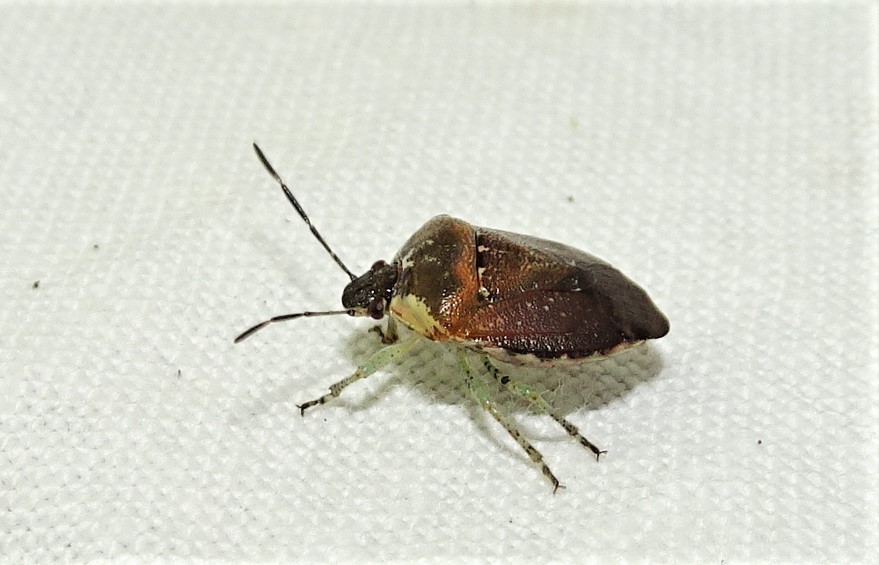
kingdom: Animalia
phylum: Arthropoda
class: Insecta
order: Hemiptera
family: Pentatomidae
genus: Monteithiella
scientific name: Monteithiella
